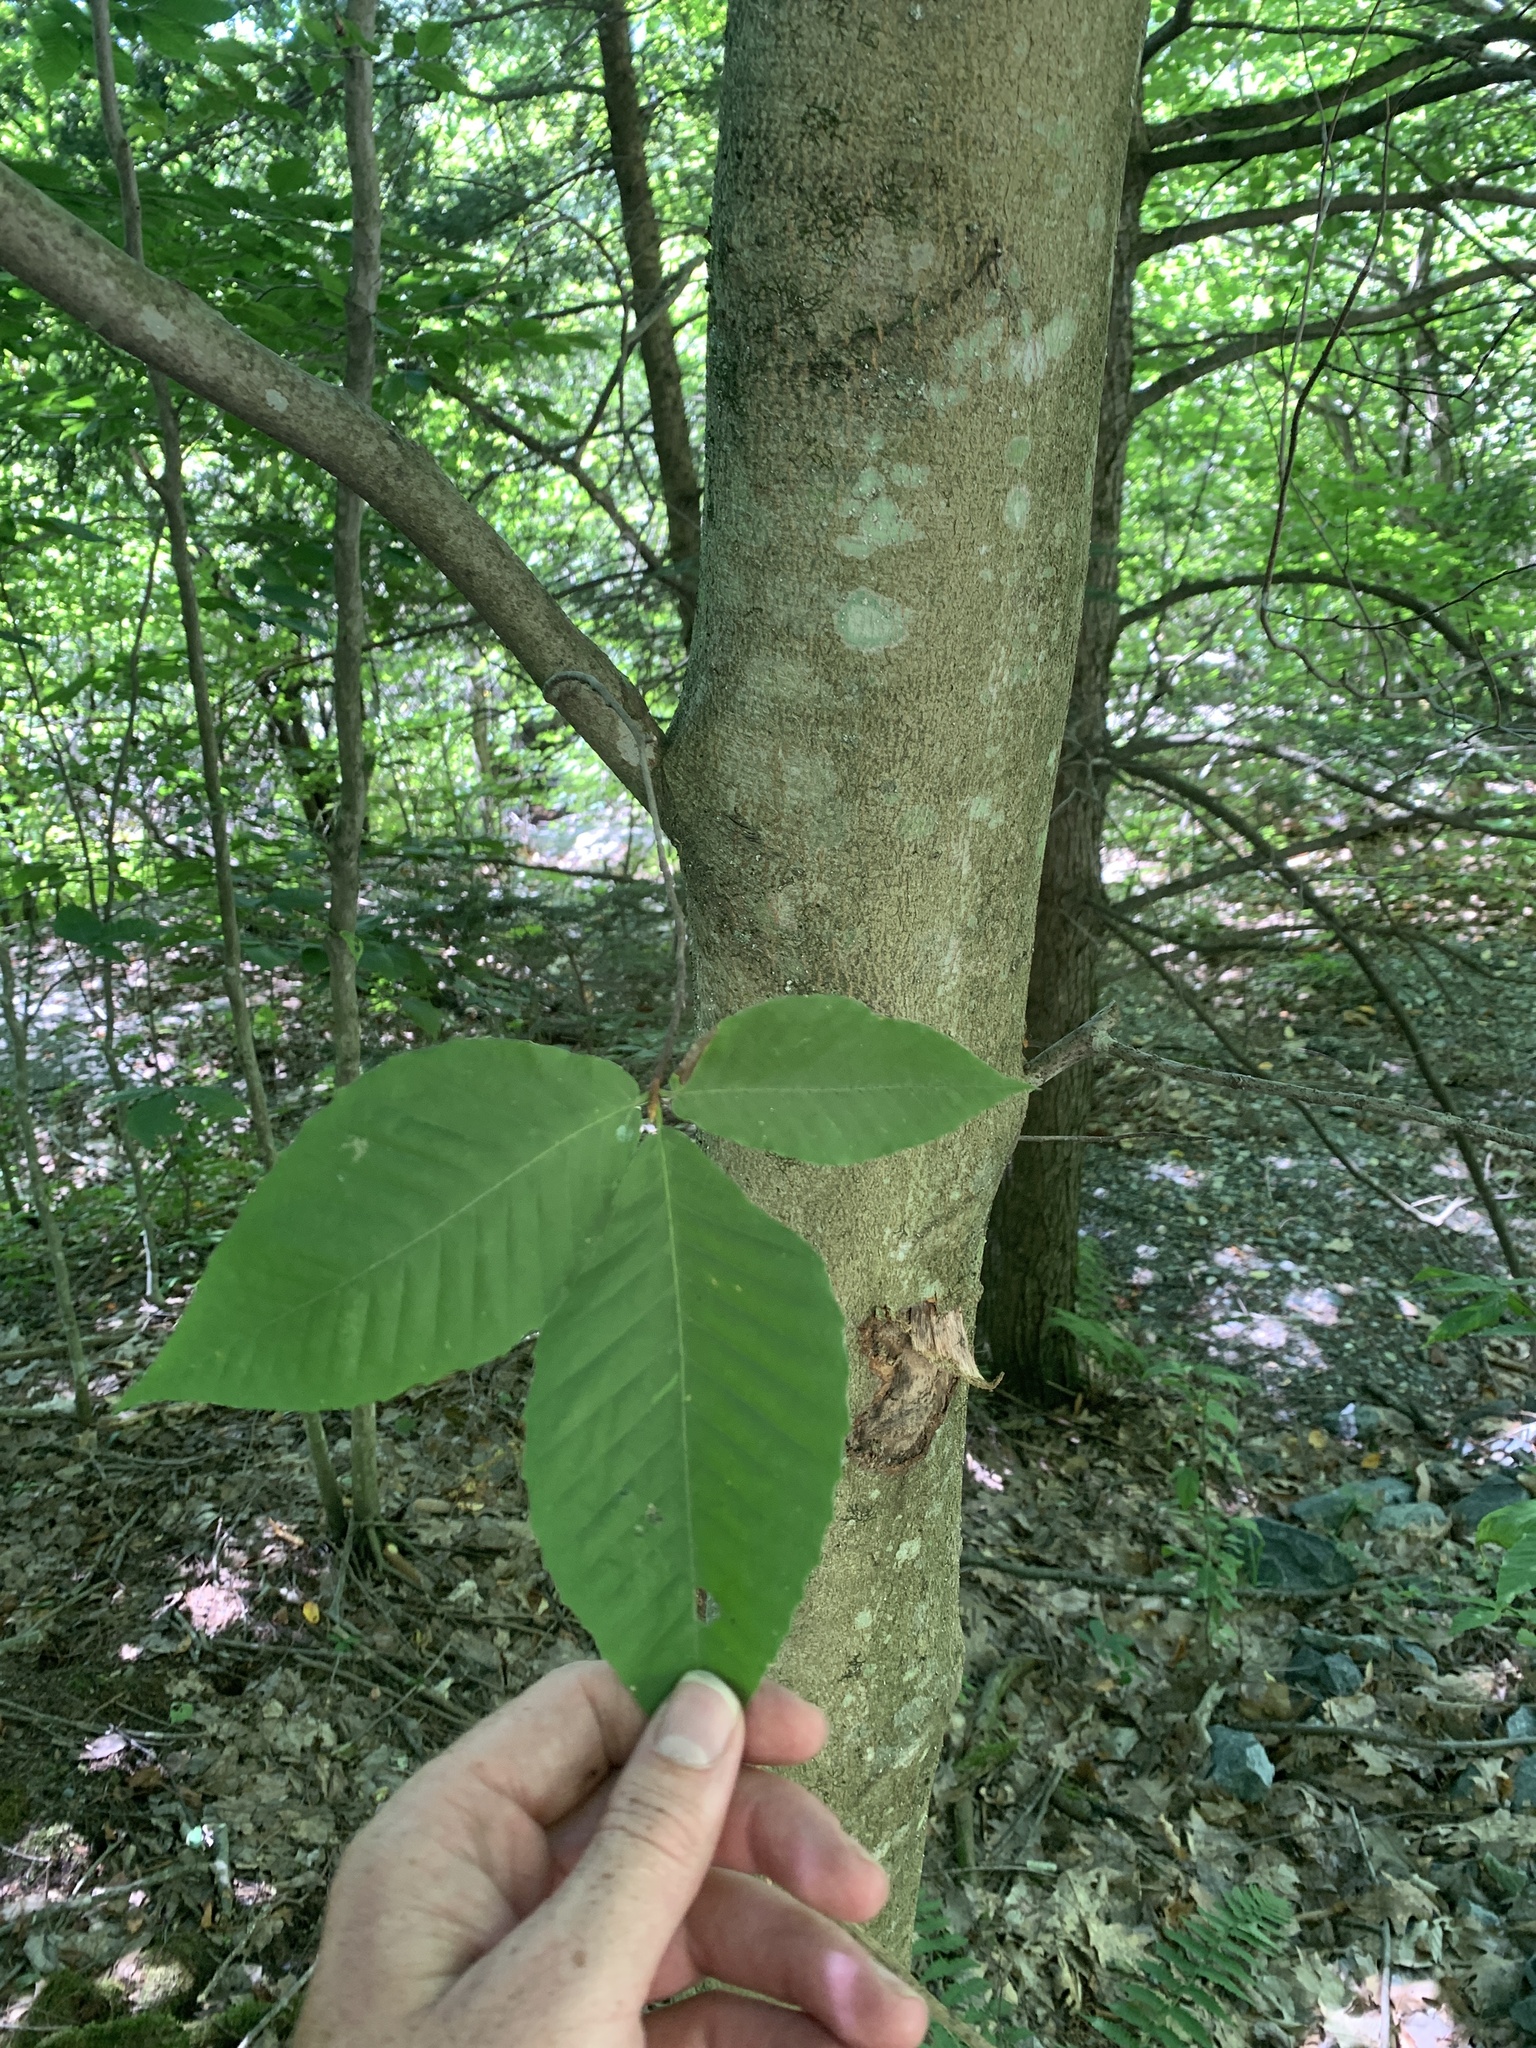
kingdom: Plantae
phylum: Tracheophyta
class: Magnoliopsida
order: Fagales
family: Fagaceae
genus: Fagus
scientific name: Fagus grandifolia
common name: American beech
